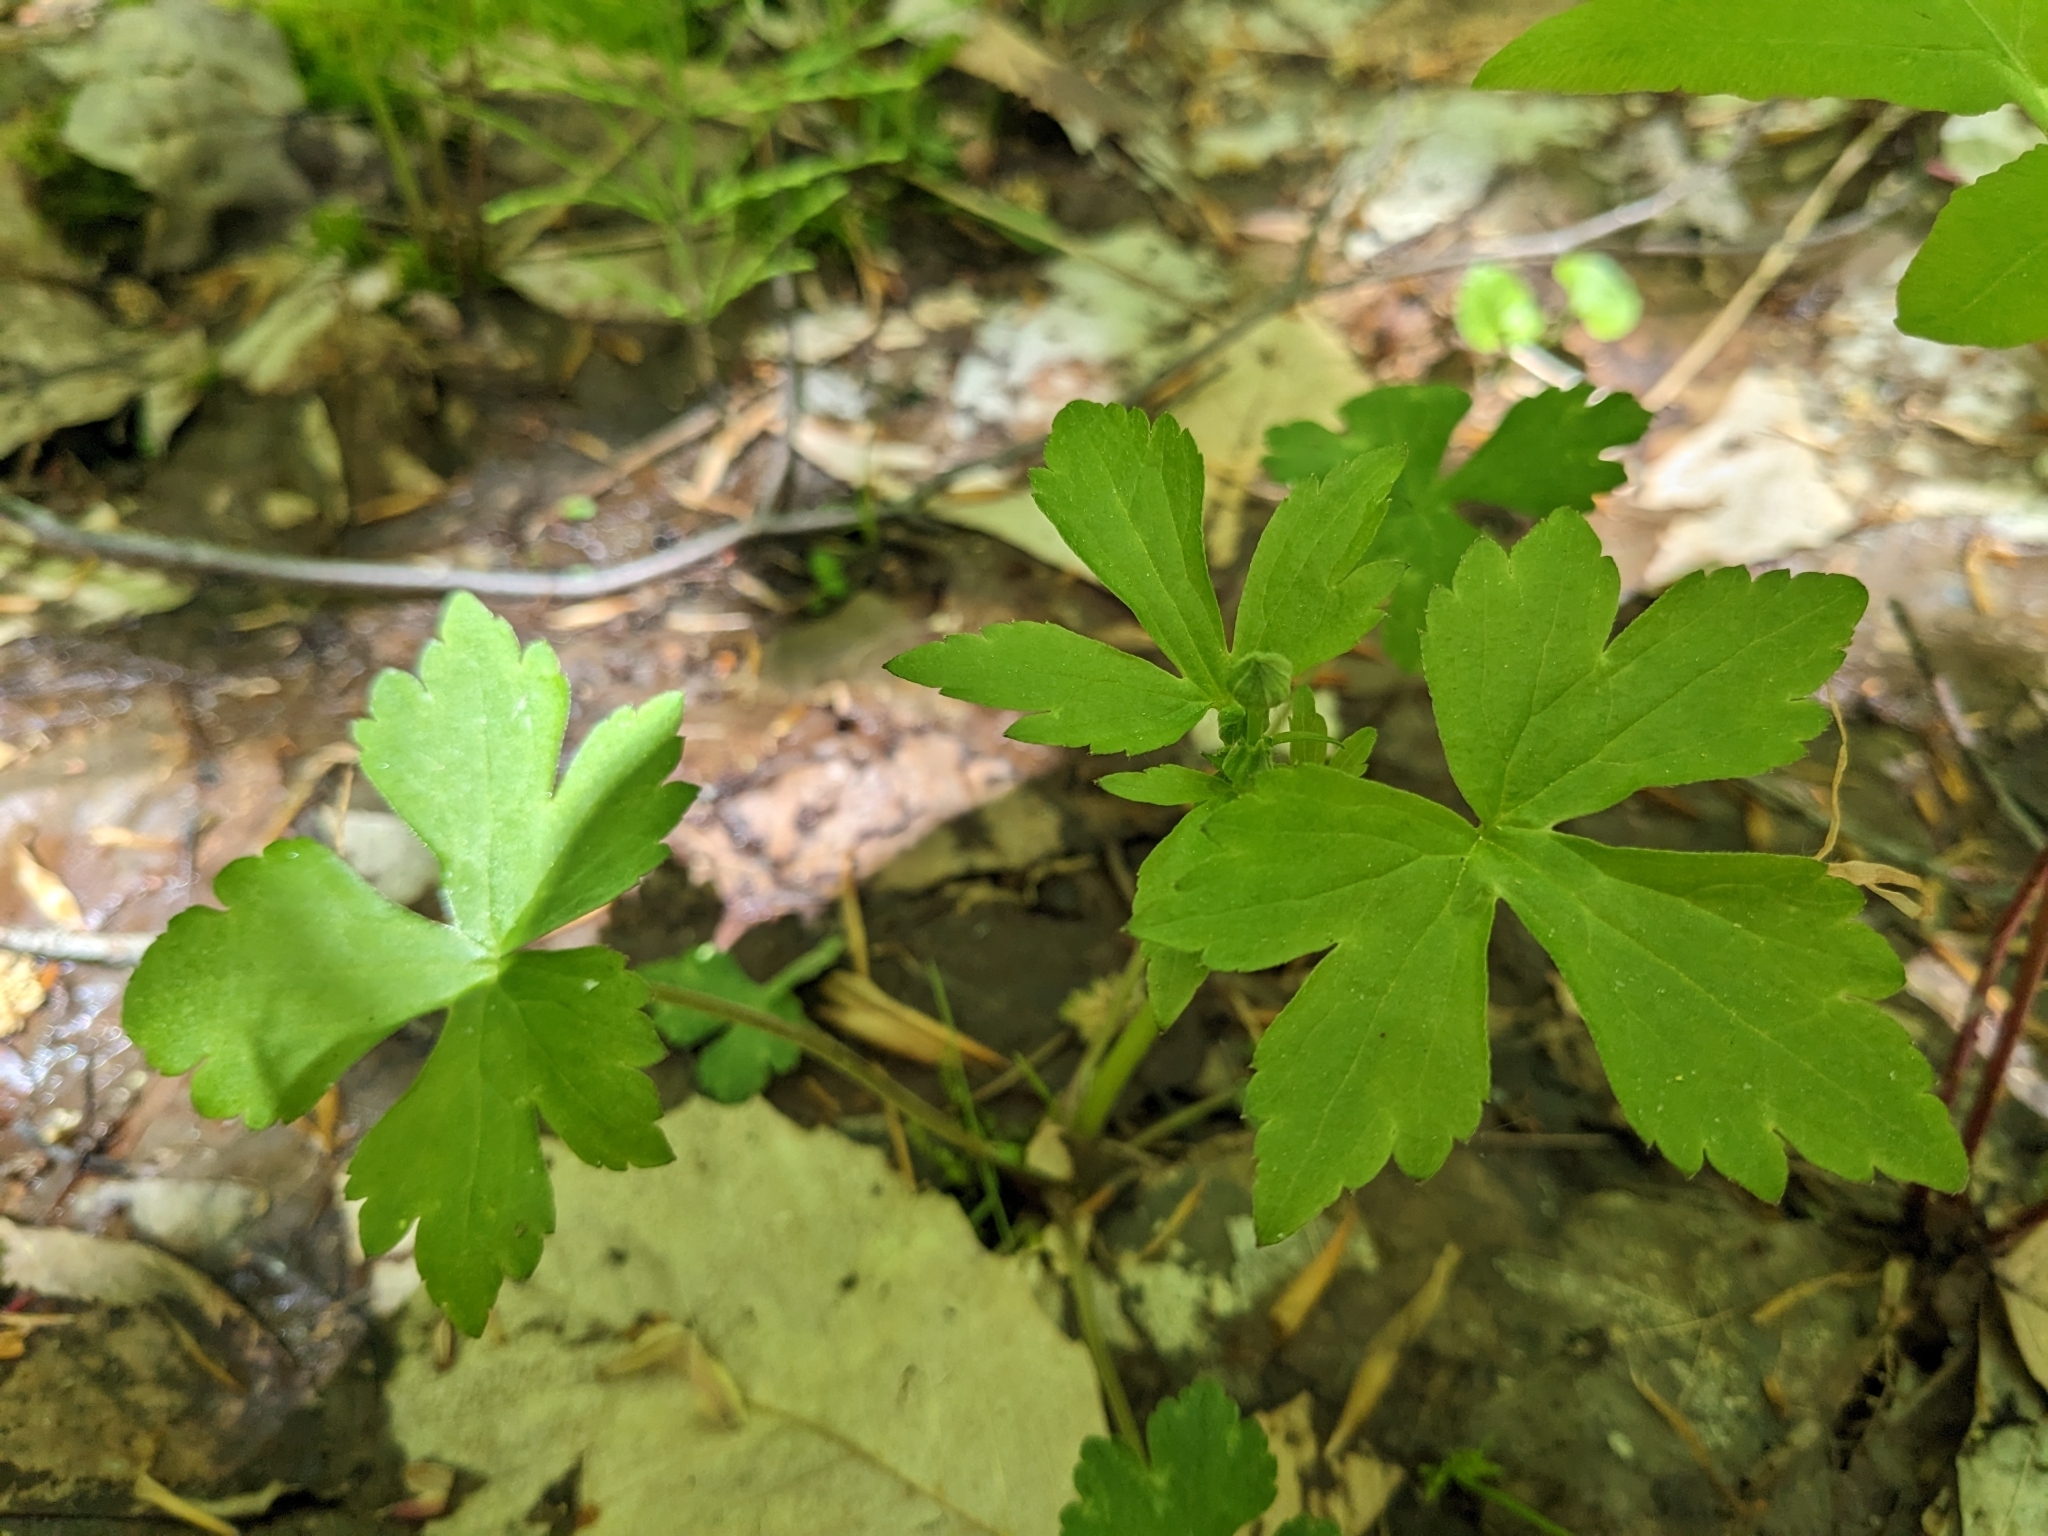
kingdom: Plantae
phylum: Tracheophyta
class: Magnoliopsida
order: Ranunculales
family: Ranunculaceae
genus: Ranunculus
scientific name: Ranunculus recurvatus
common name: Blisterwort
